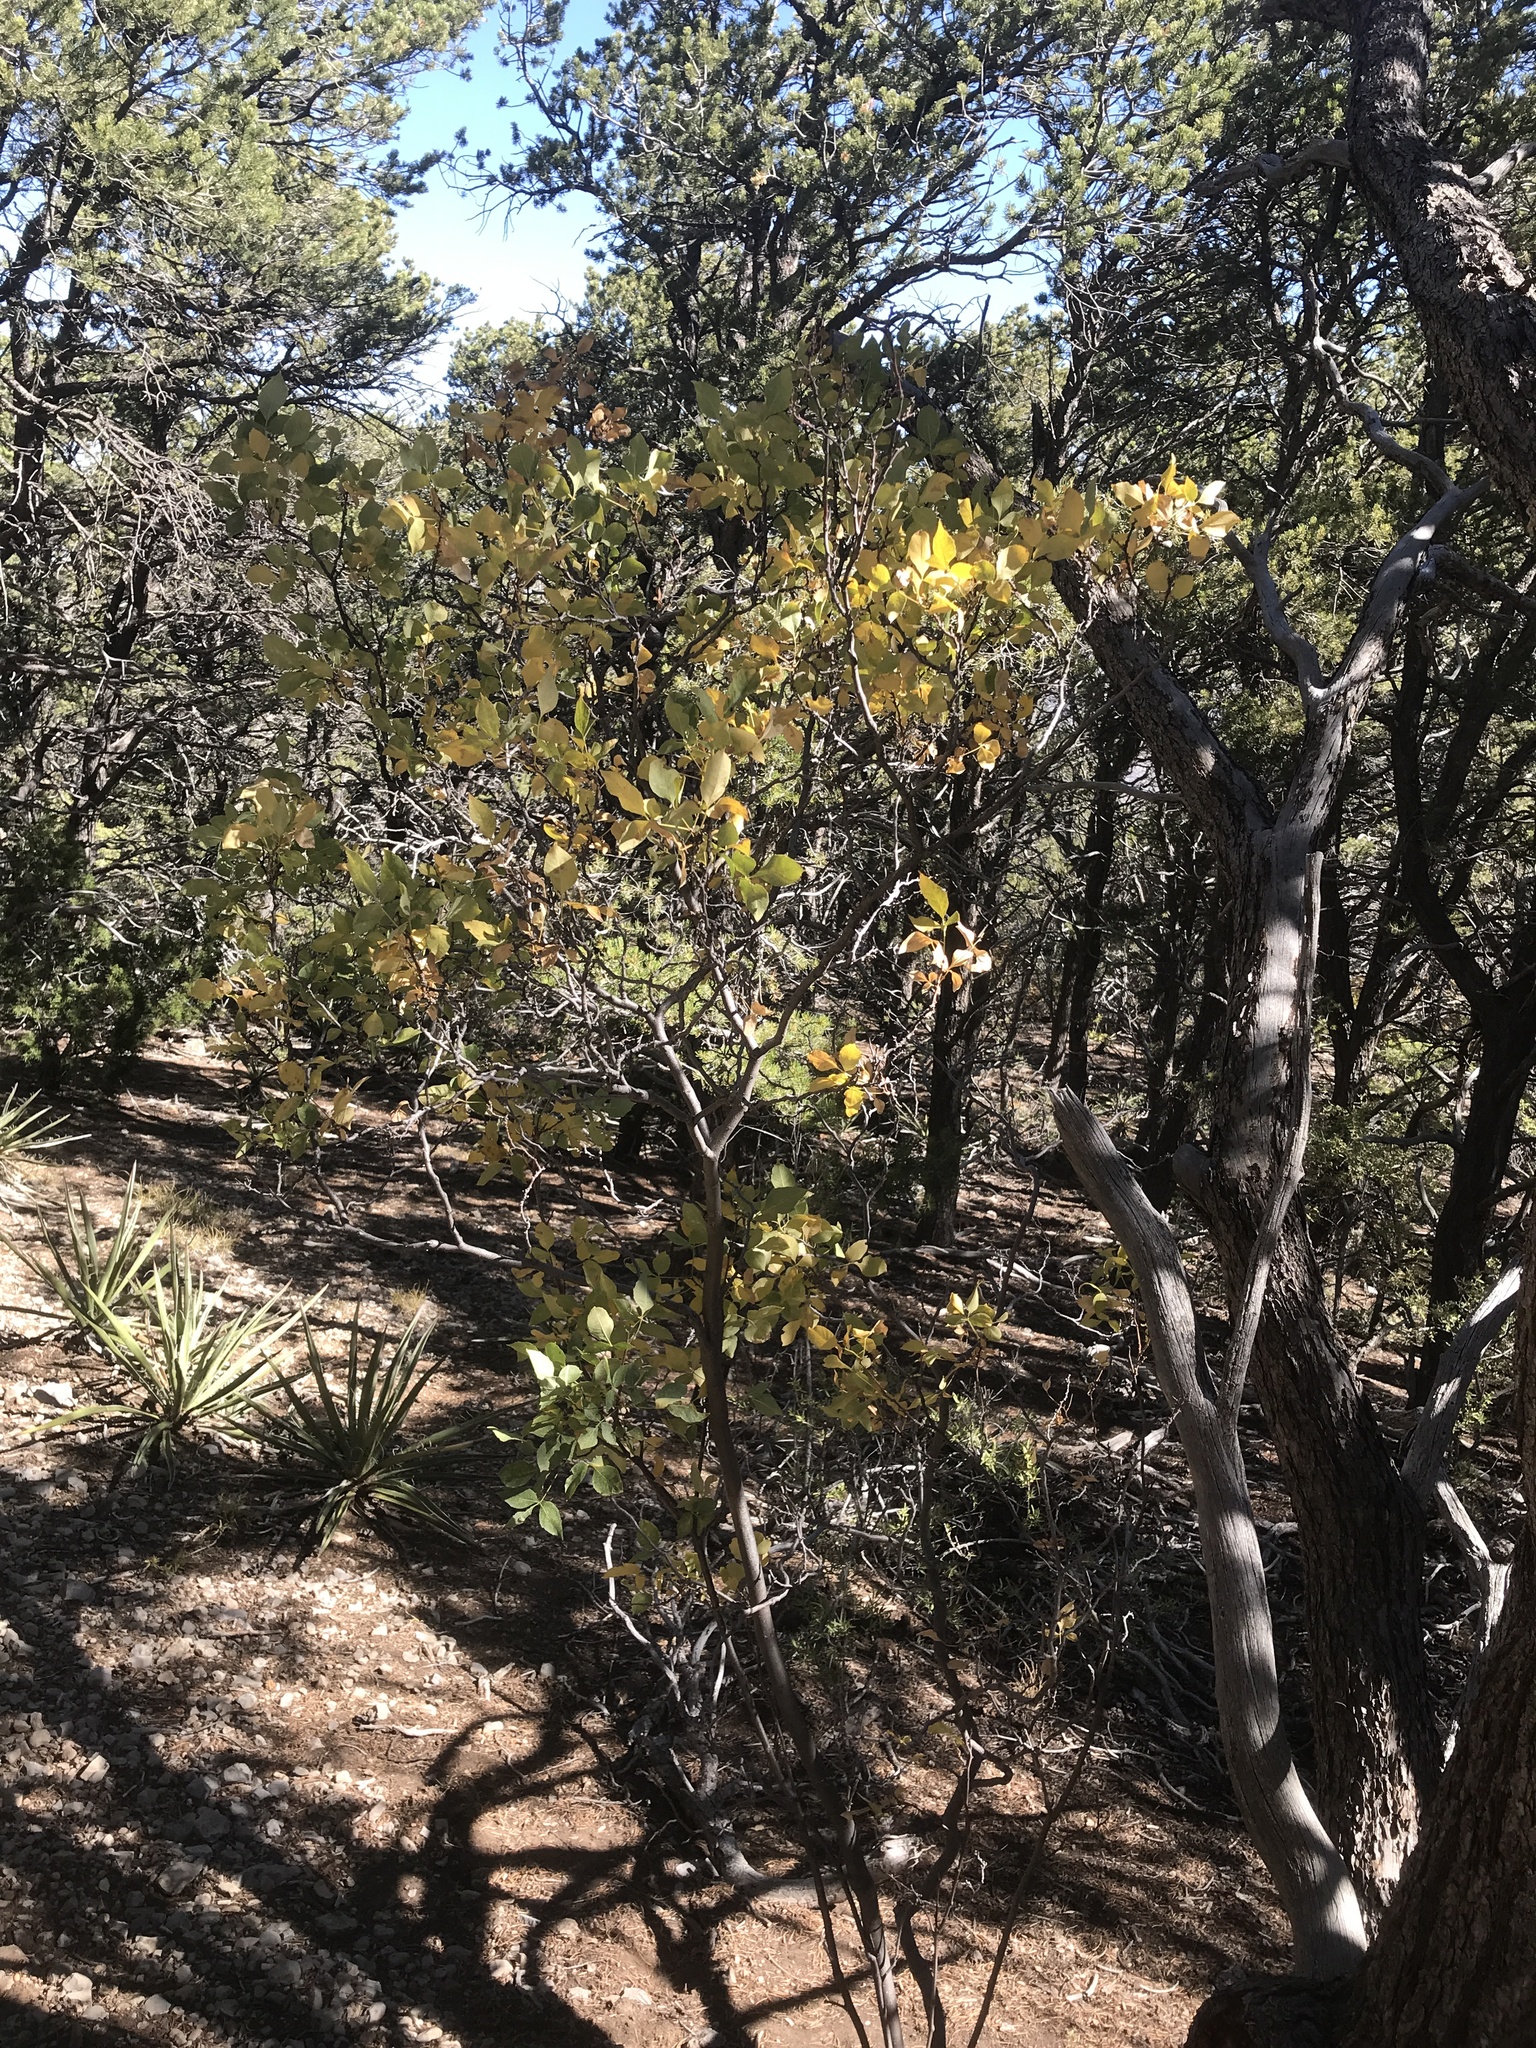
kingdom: Plantae
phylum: Tracheophyta
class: Magnoliopsida
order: Sapindales
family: Rutaceae
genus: Ptelea
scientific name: Ptelea trifoliata
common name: Common hop-tree
